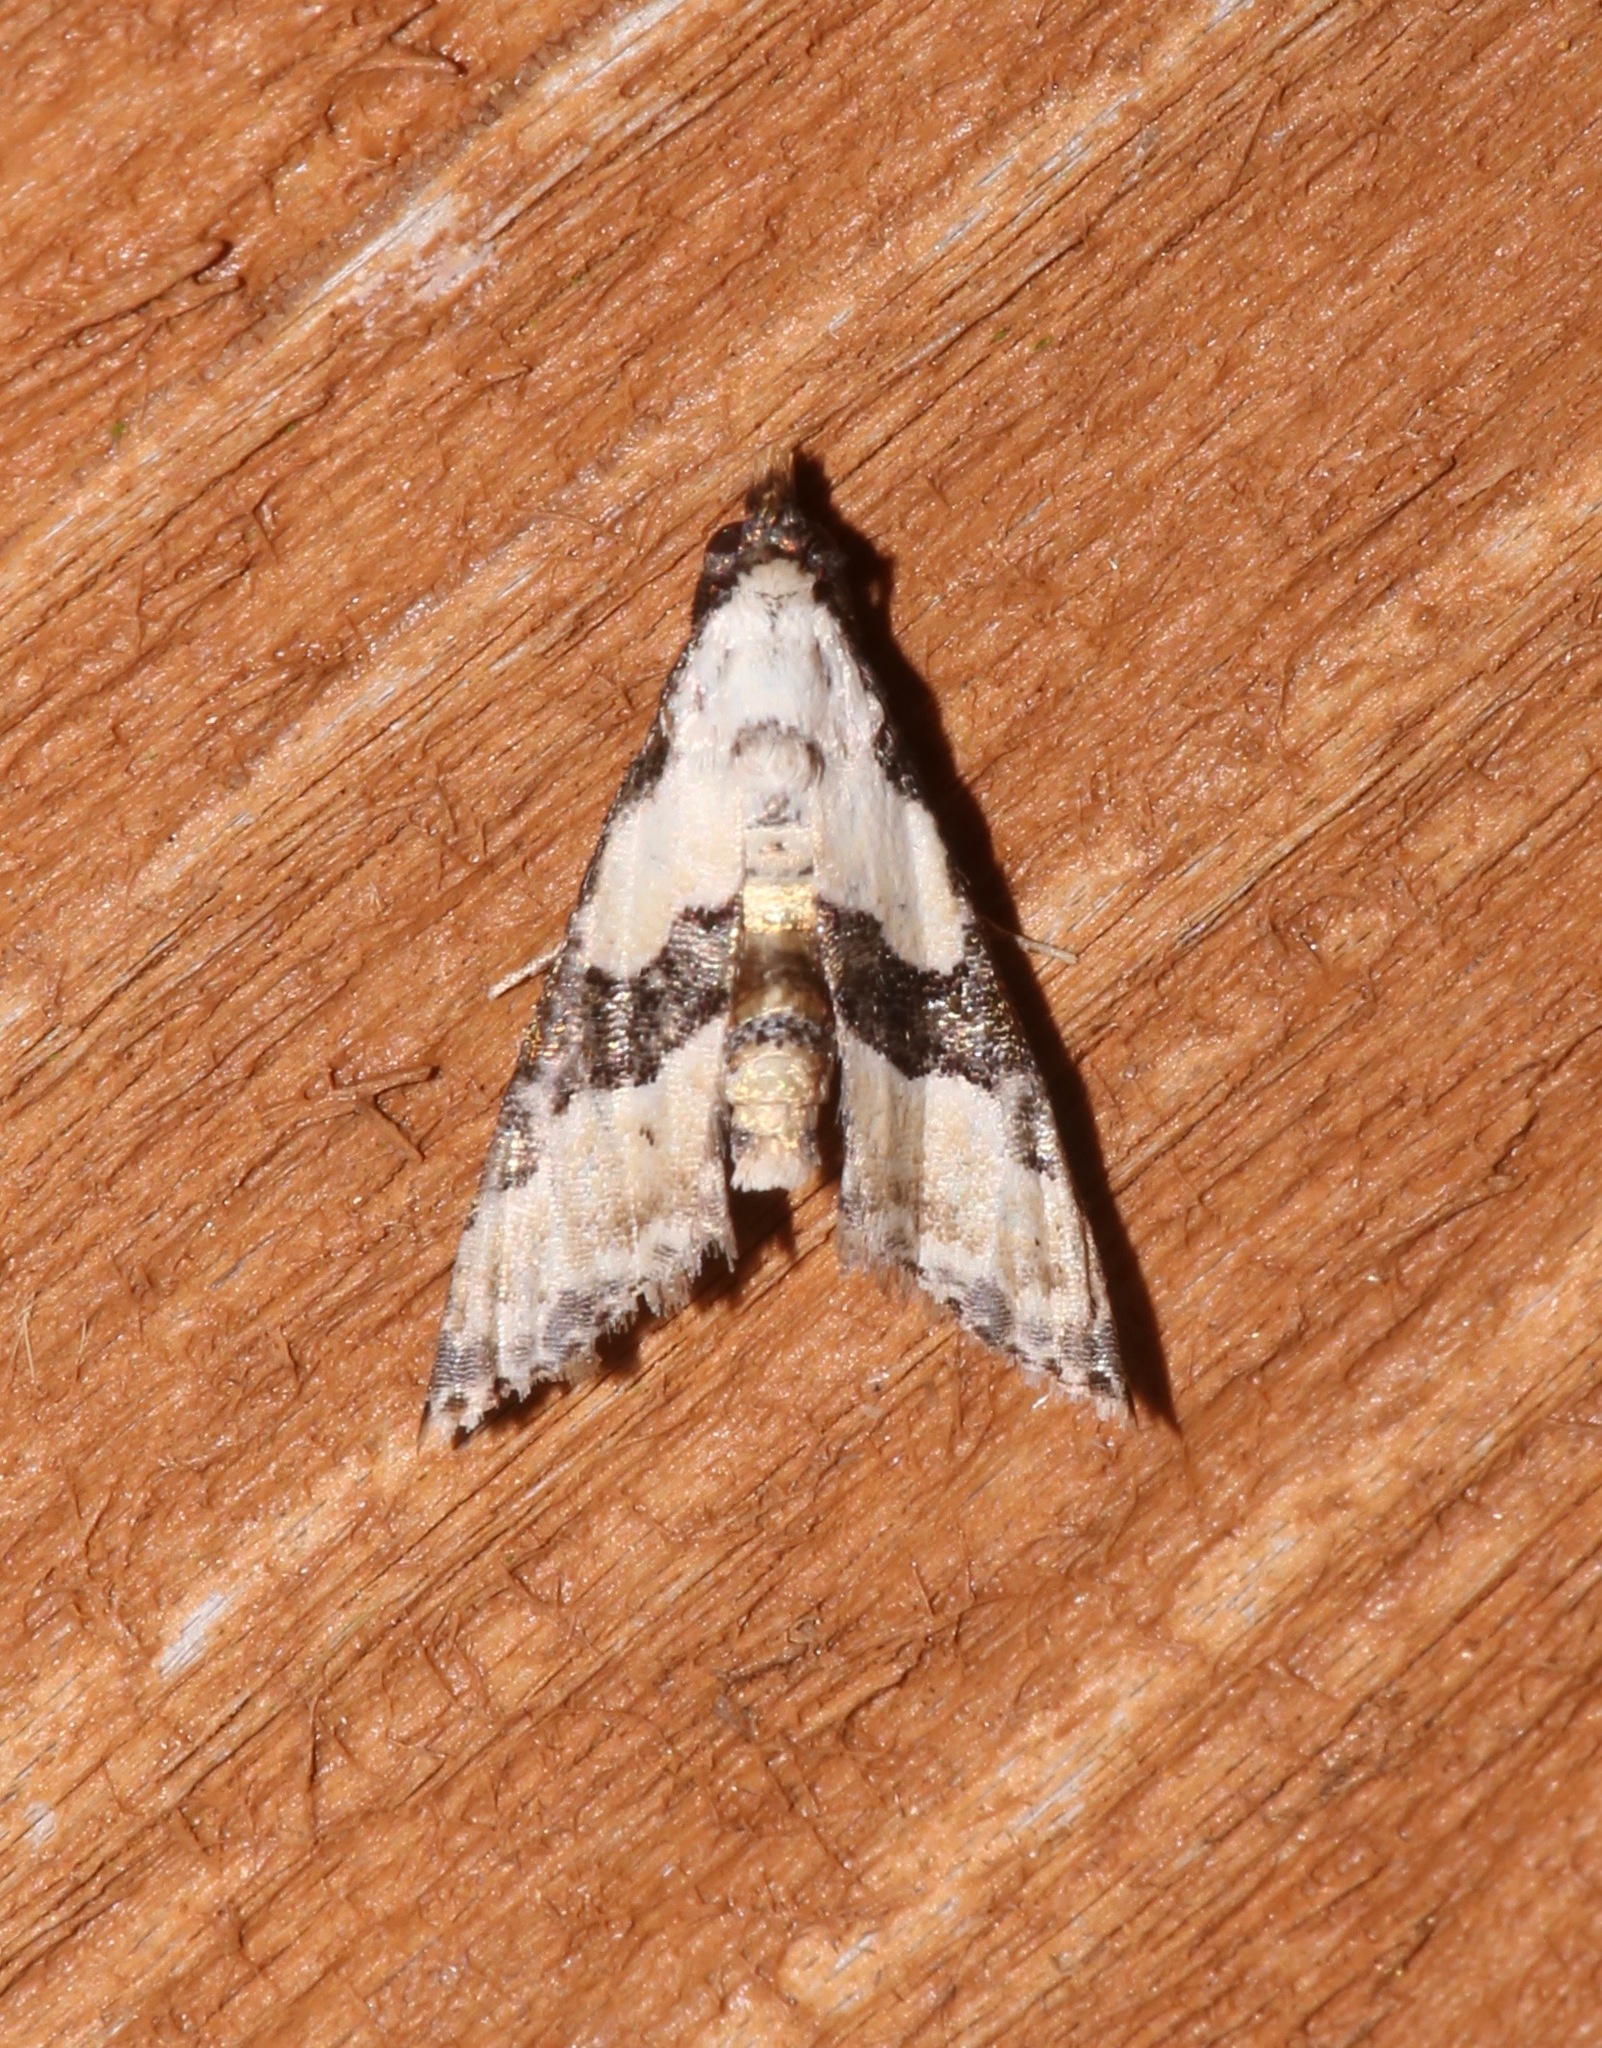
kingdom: Animalia
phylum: Arthropoda
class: Insecta
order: Lepidoptera
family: Noctuidae
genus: Nigetia
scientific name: Nigetia formosalis
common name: Thin-winged owlet
